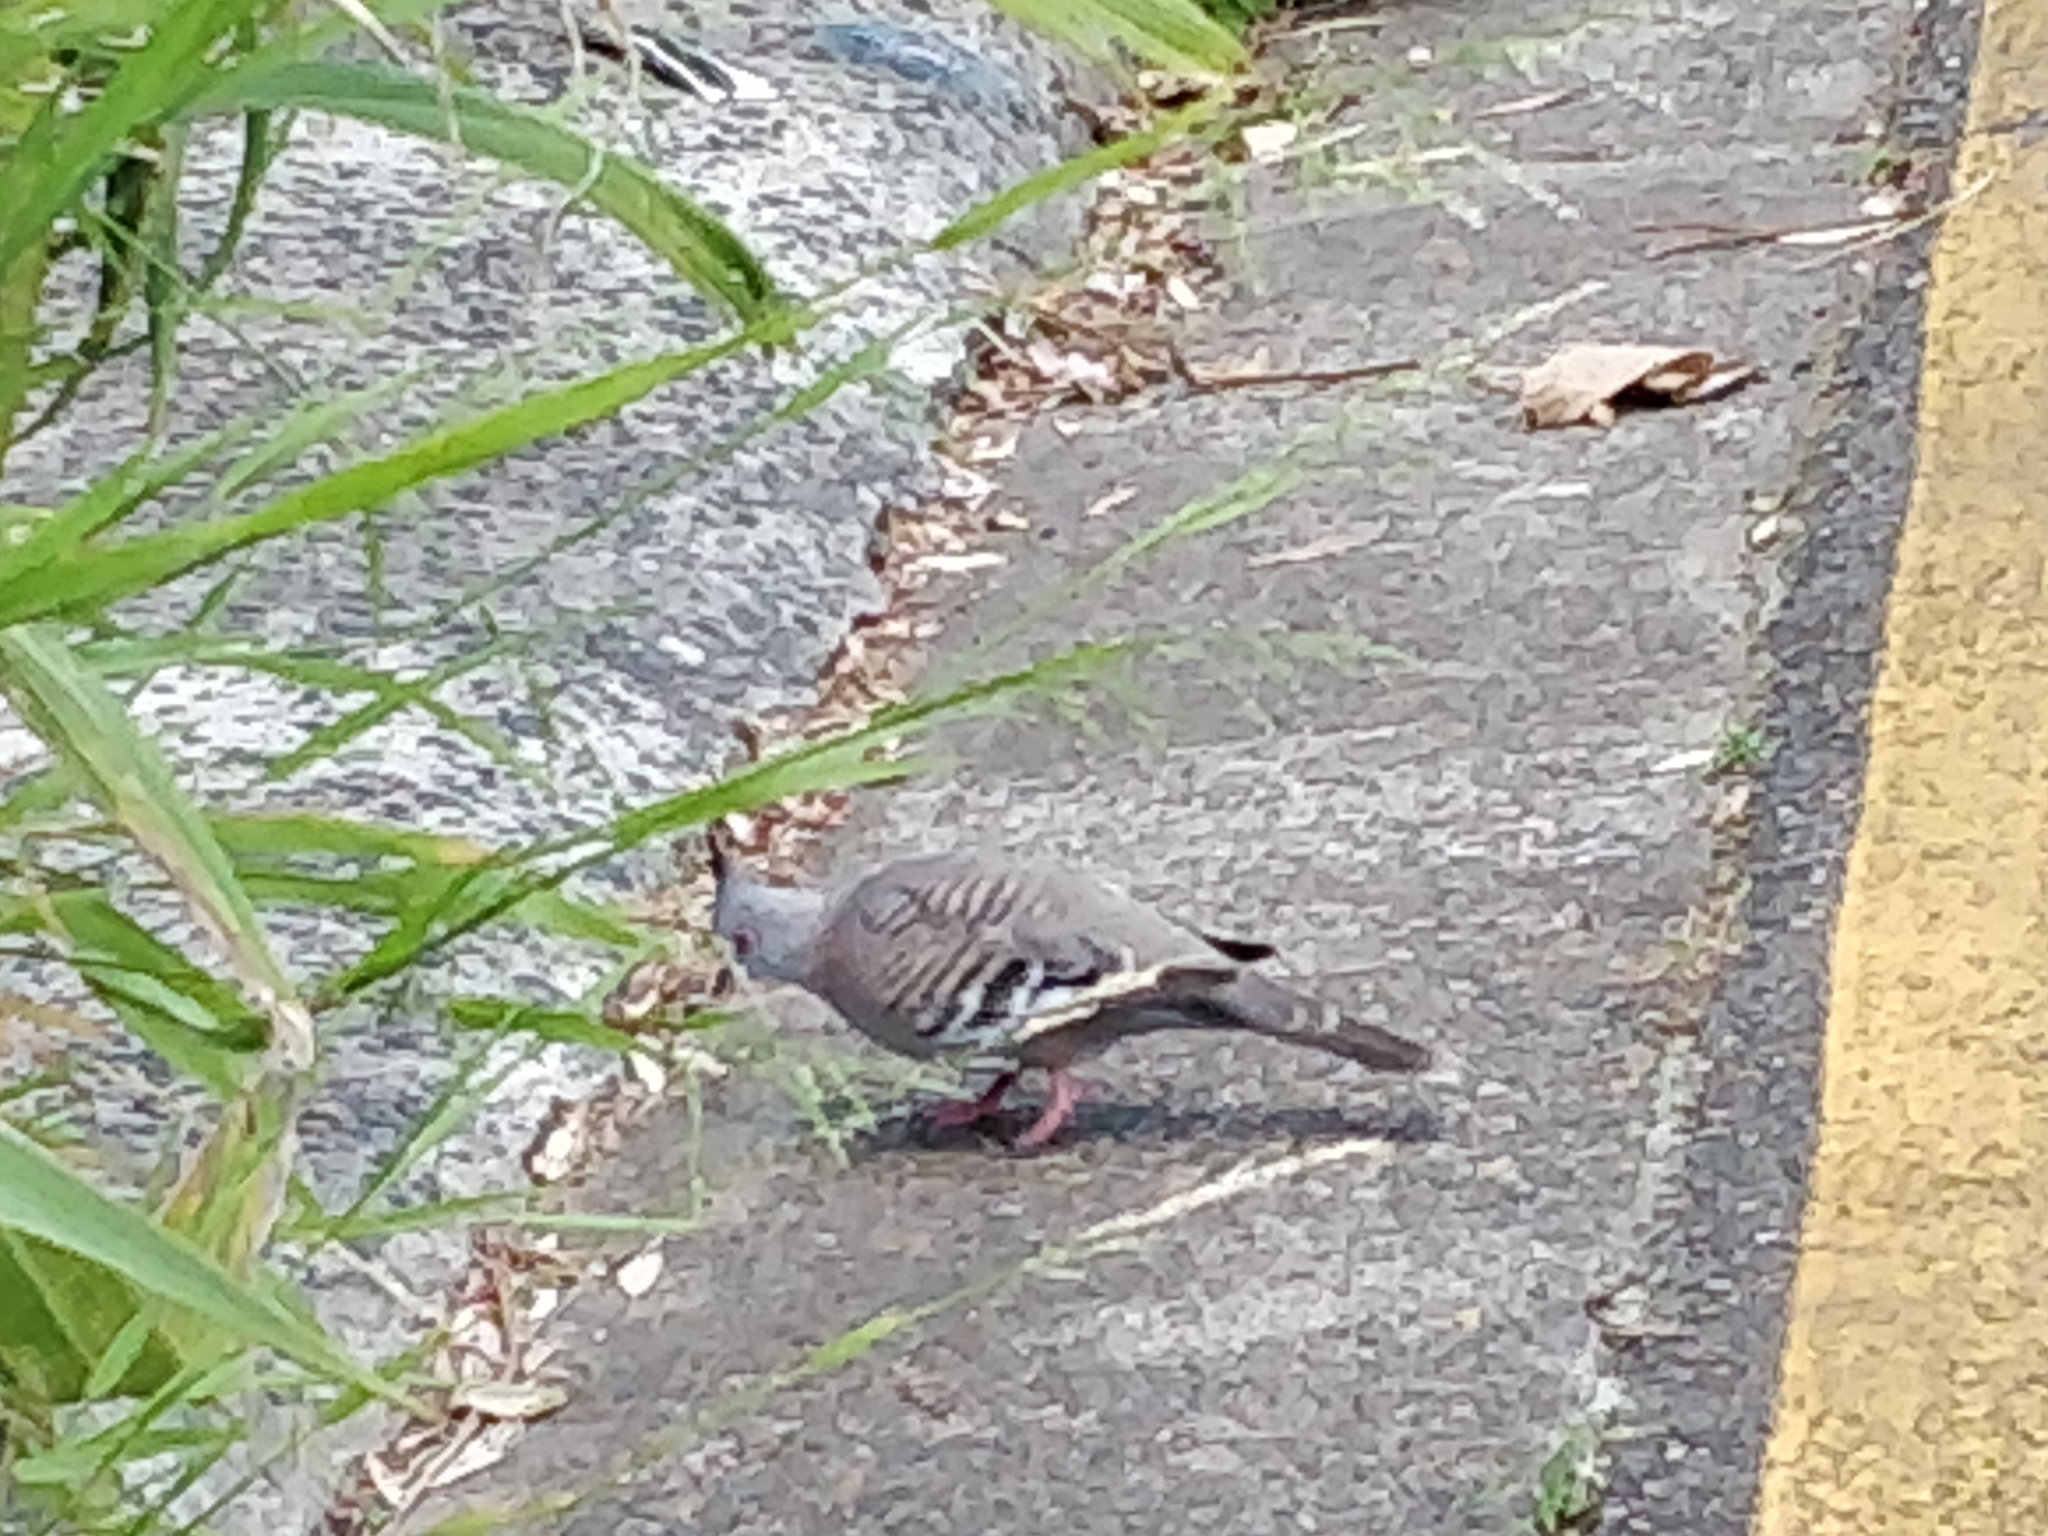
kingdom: Animalia
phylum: Chordata
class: Aves
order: Columbiformes
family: Columbidae
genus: Ocyphaps
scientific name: Ocyphaps lophotes
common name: Crested pigeon
